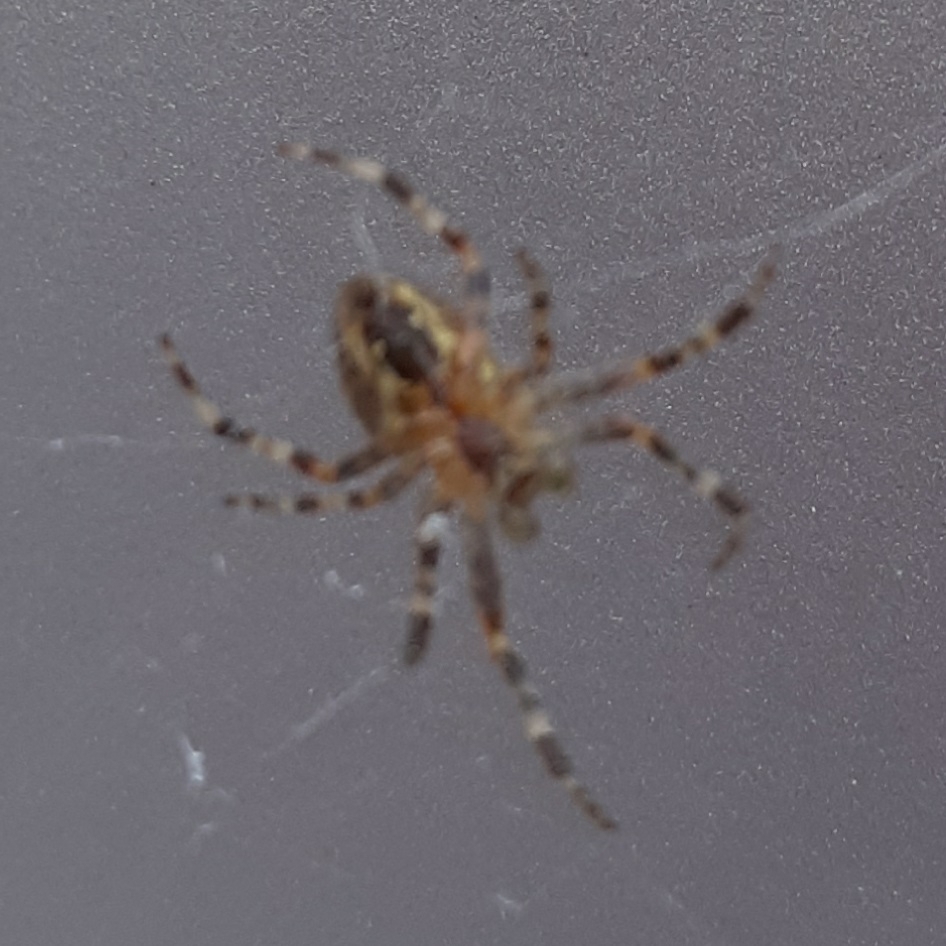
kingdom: Animalia
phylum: Arthropoda
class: Arachnida
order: Araneae
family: Araneidae
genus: Araneus
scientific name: Araneus diadematus
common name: Cross orbweaver
